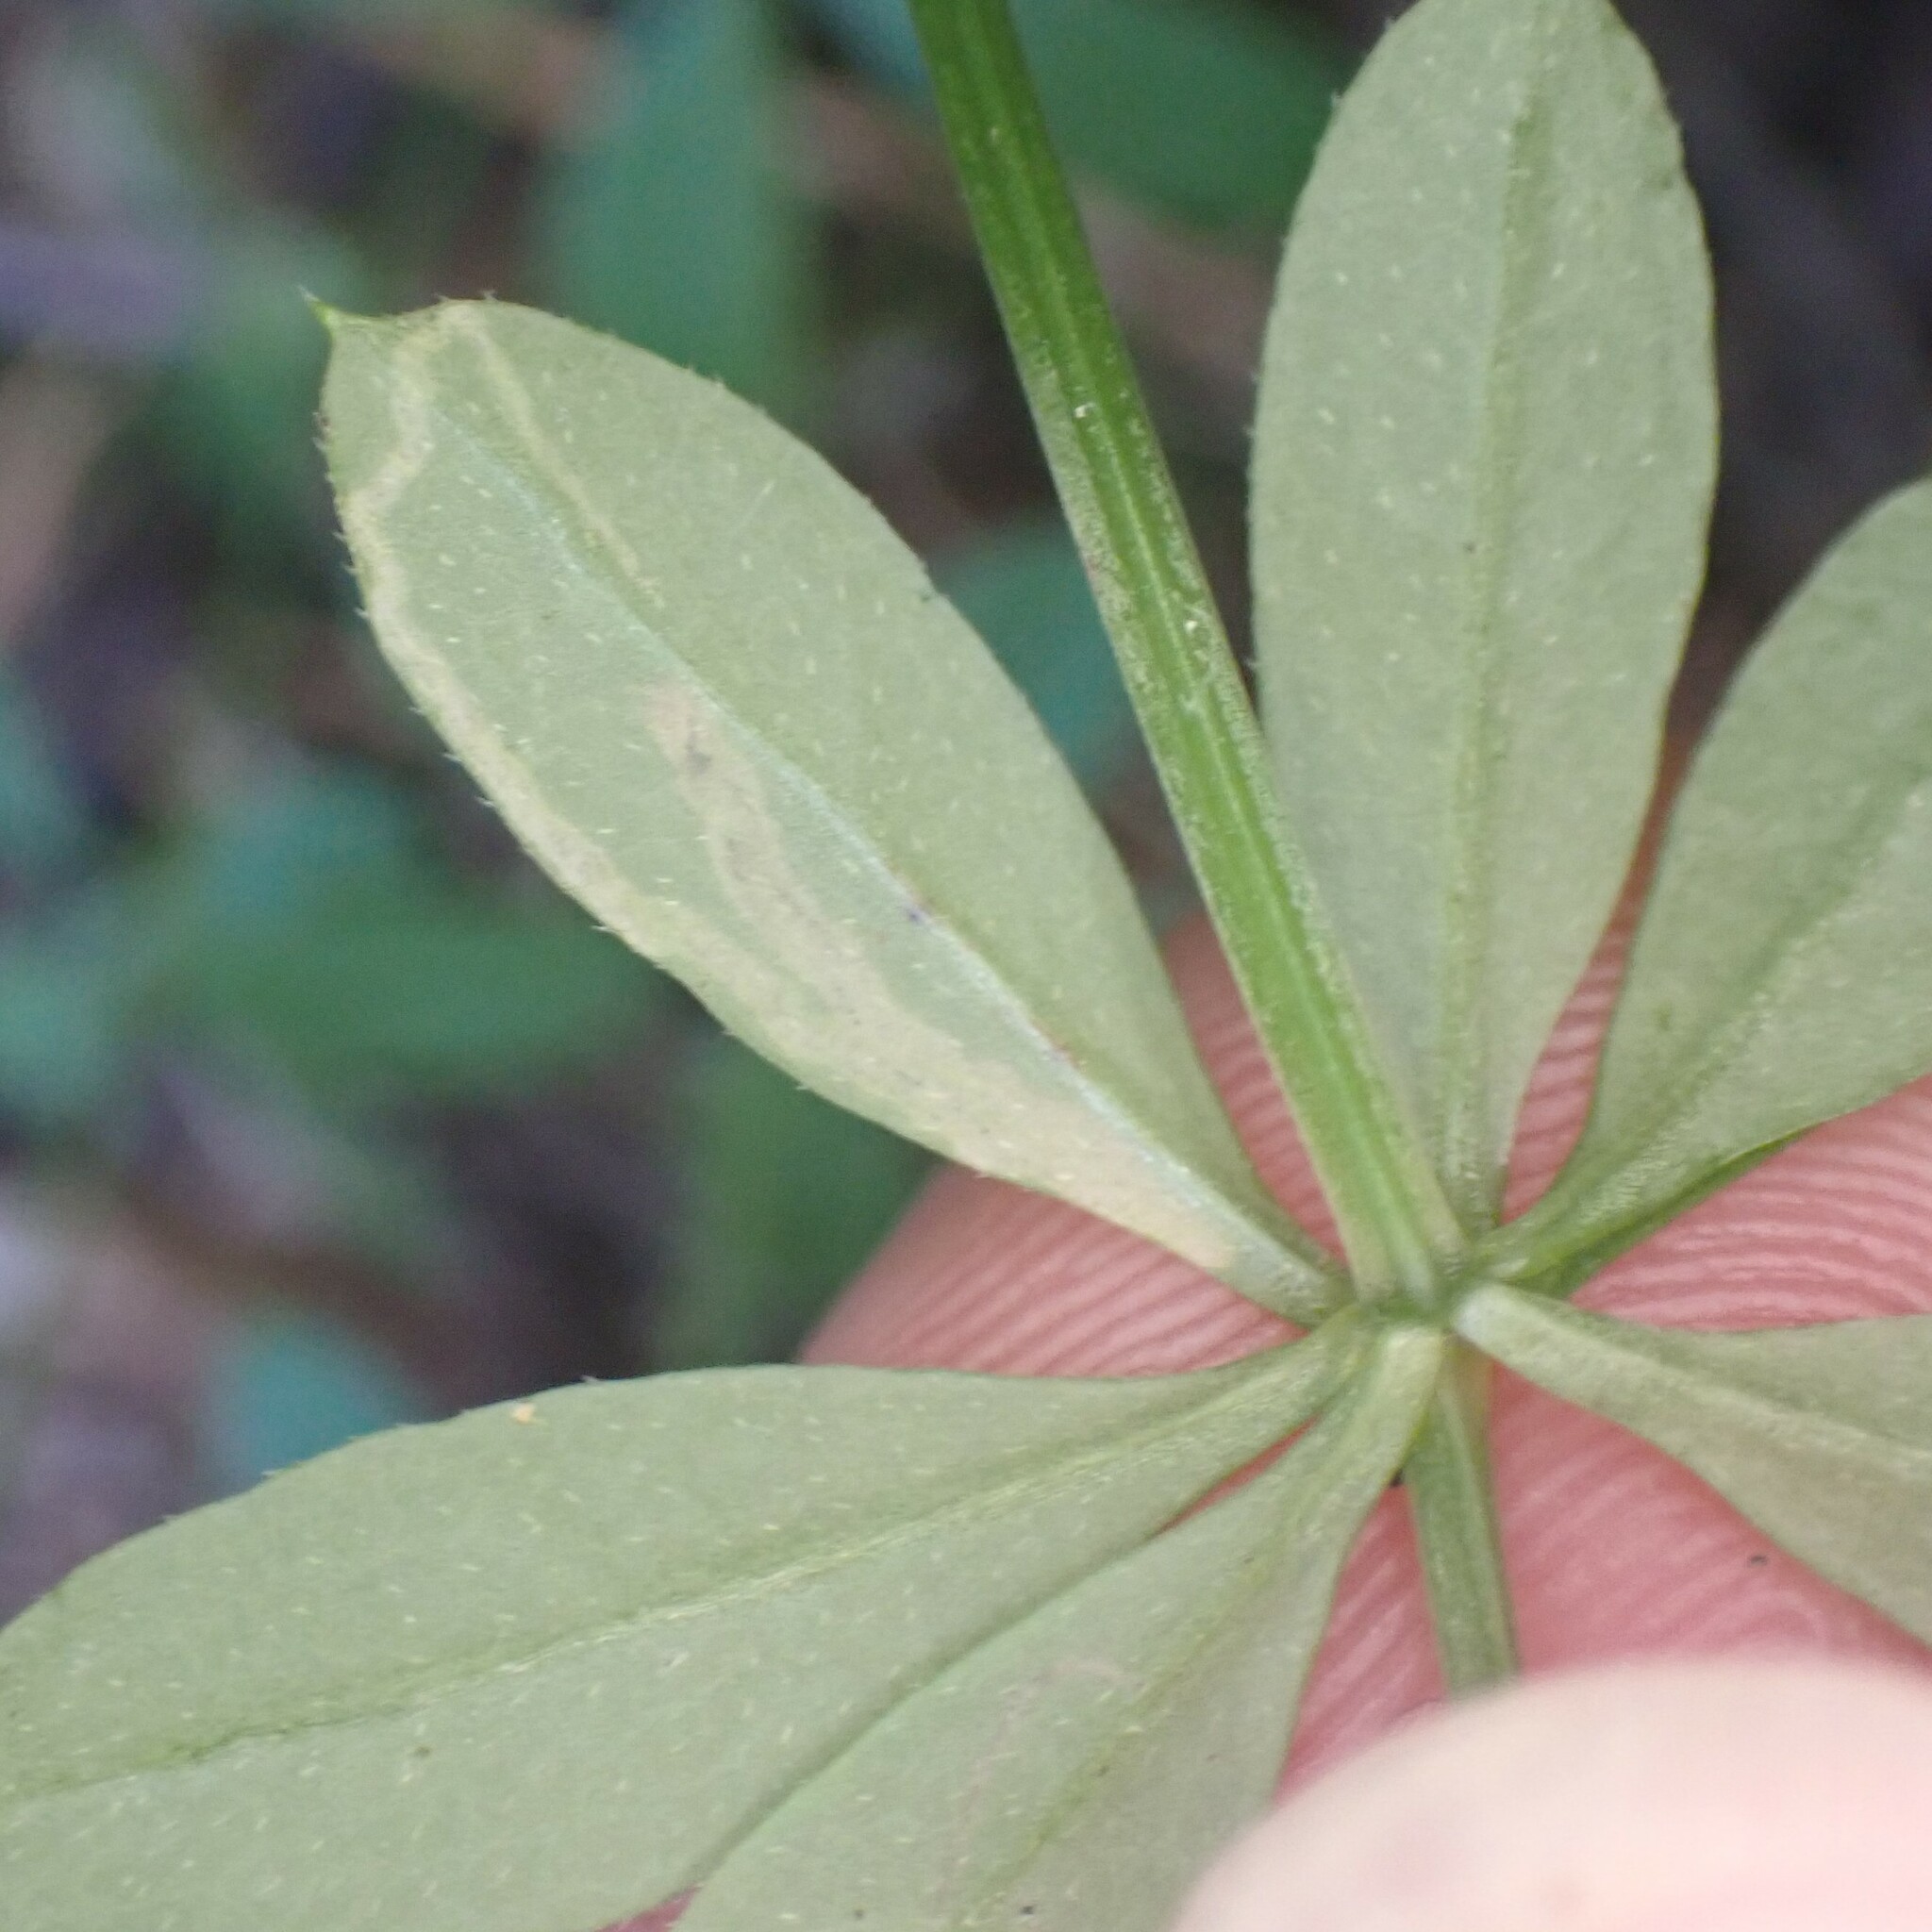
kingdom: Animalia
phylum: Arthropoda
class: Insecta
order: Diptera
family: Agromyzidae
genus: Liriomyza
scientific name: Liriomyza galiivora
